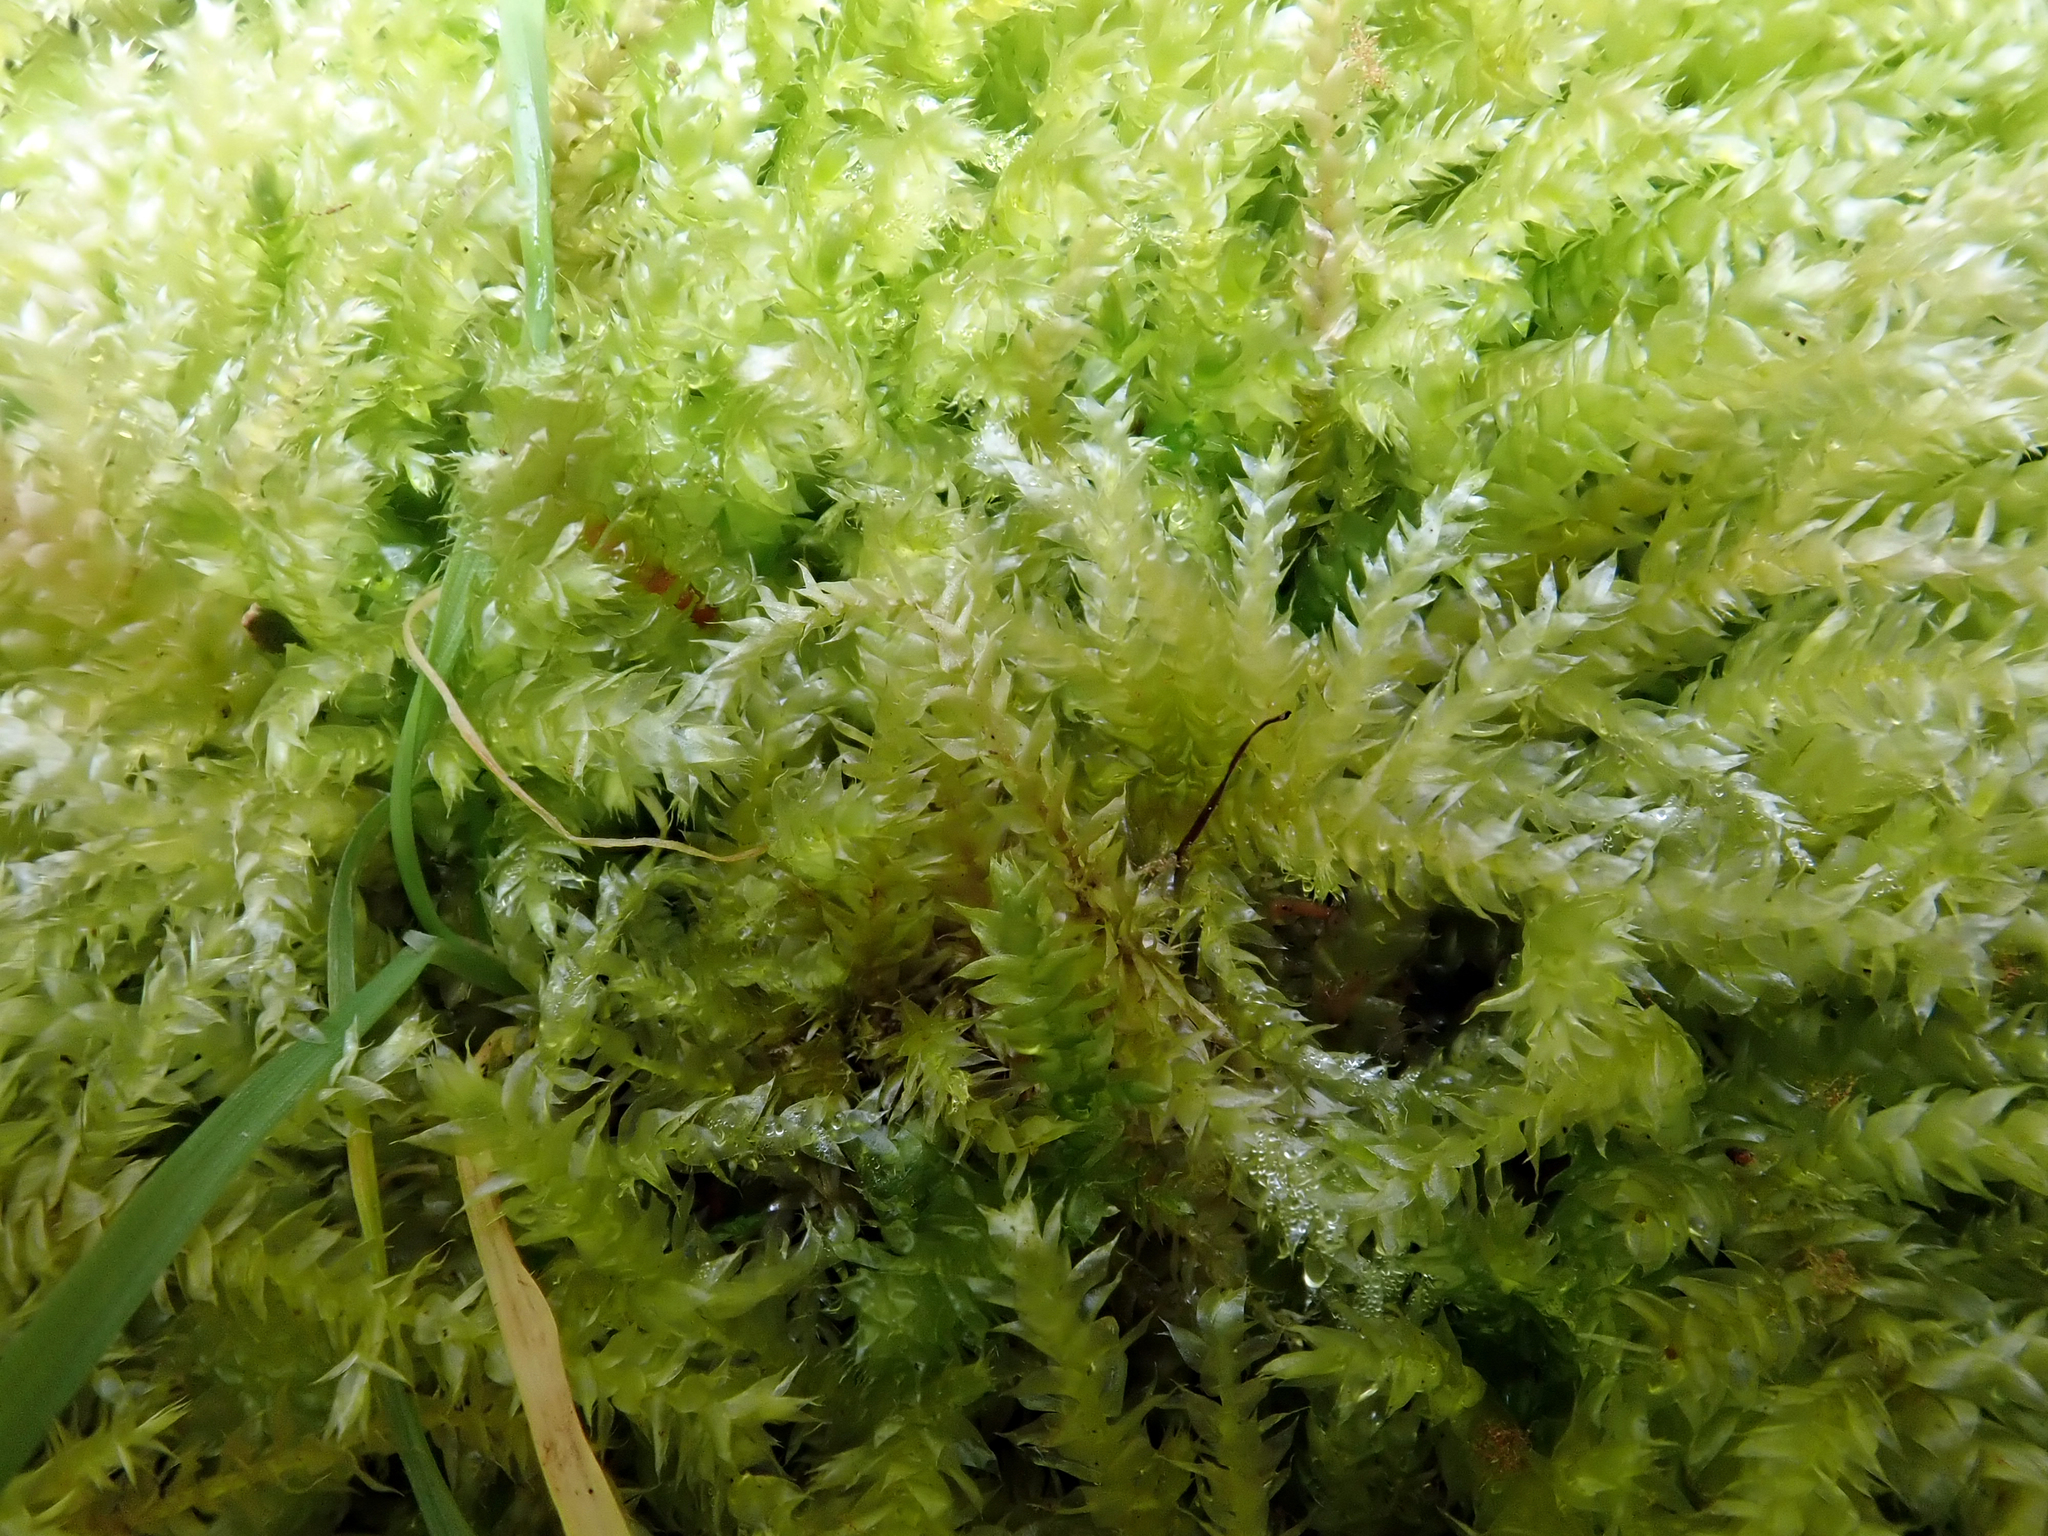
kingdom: Plantae
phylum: Bryophyta
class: Bryopsida
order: Hypnales
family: Brachytheciaceae
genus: Brachythecium
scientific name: Brachythecium rutabulum
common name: Rough-stalked feather-moss
